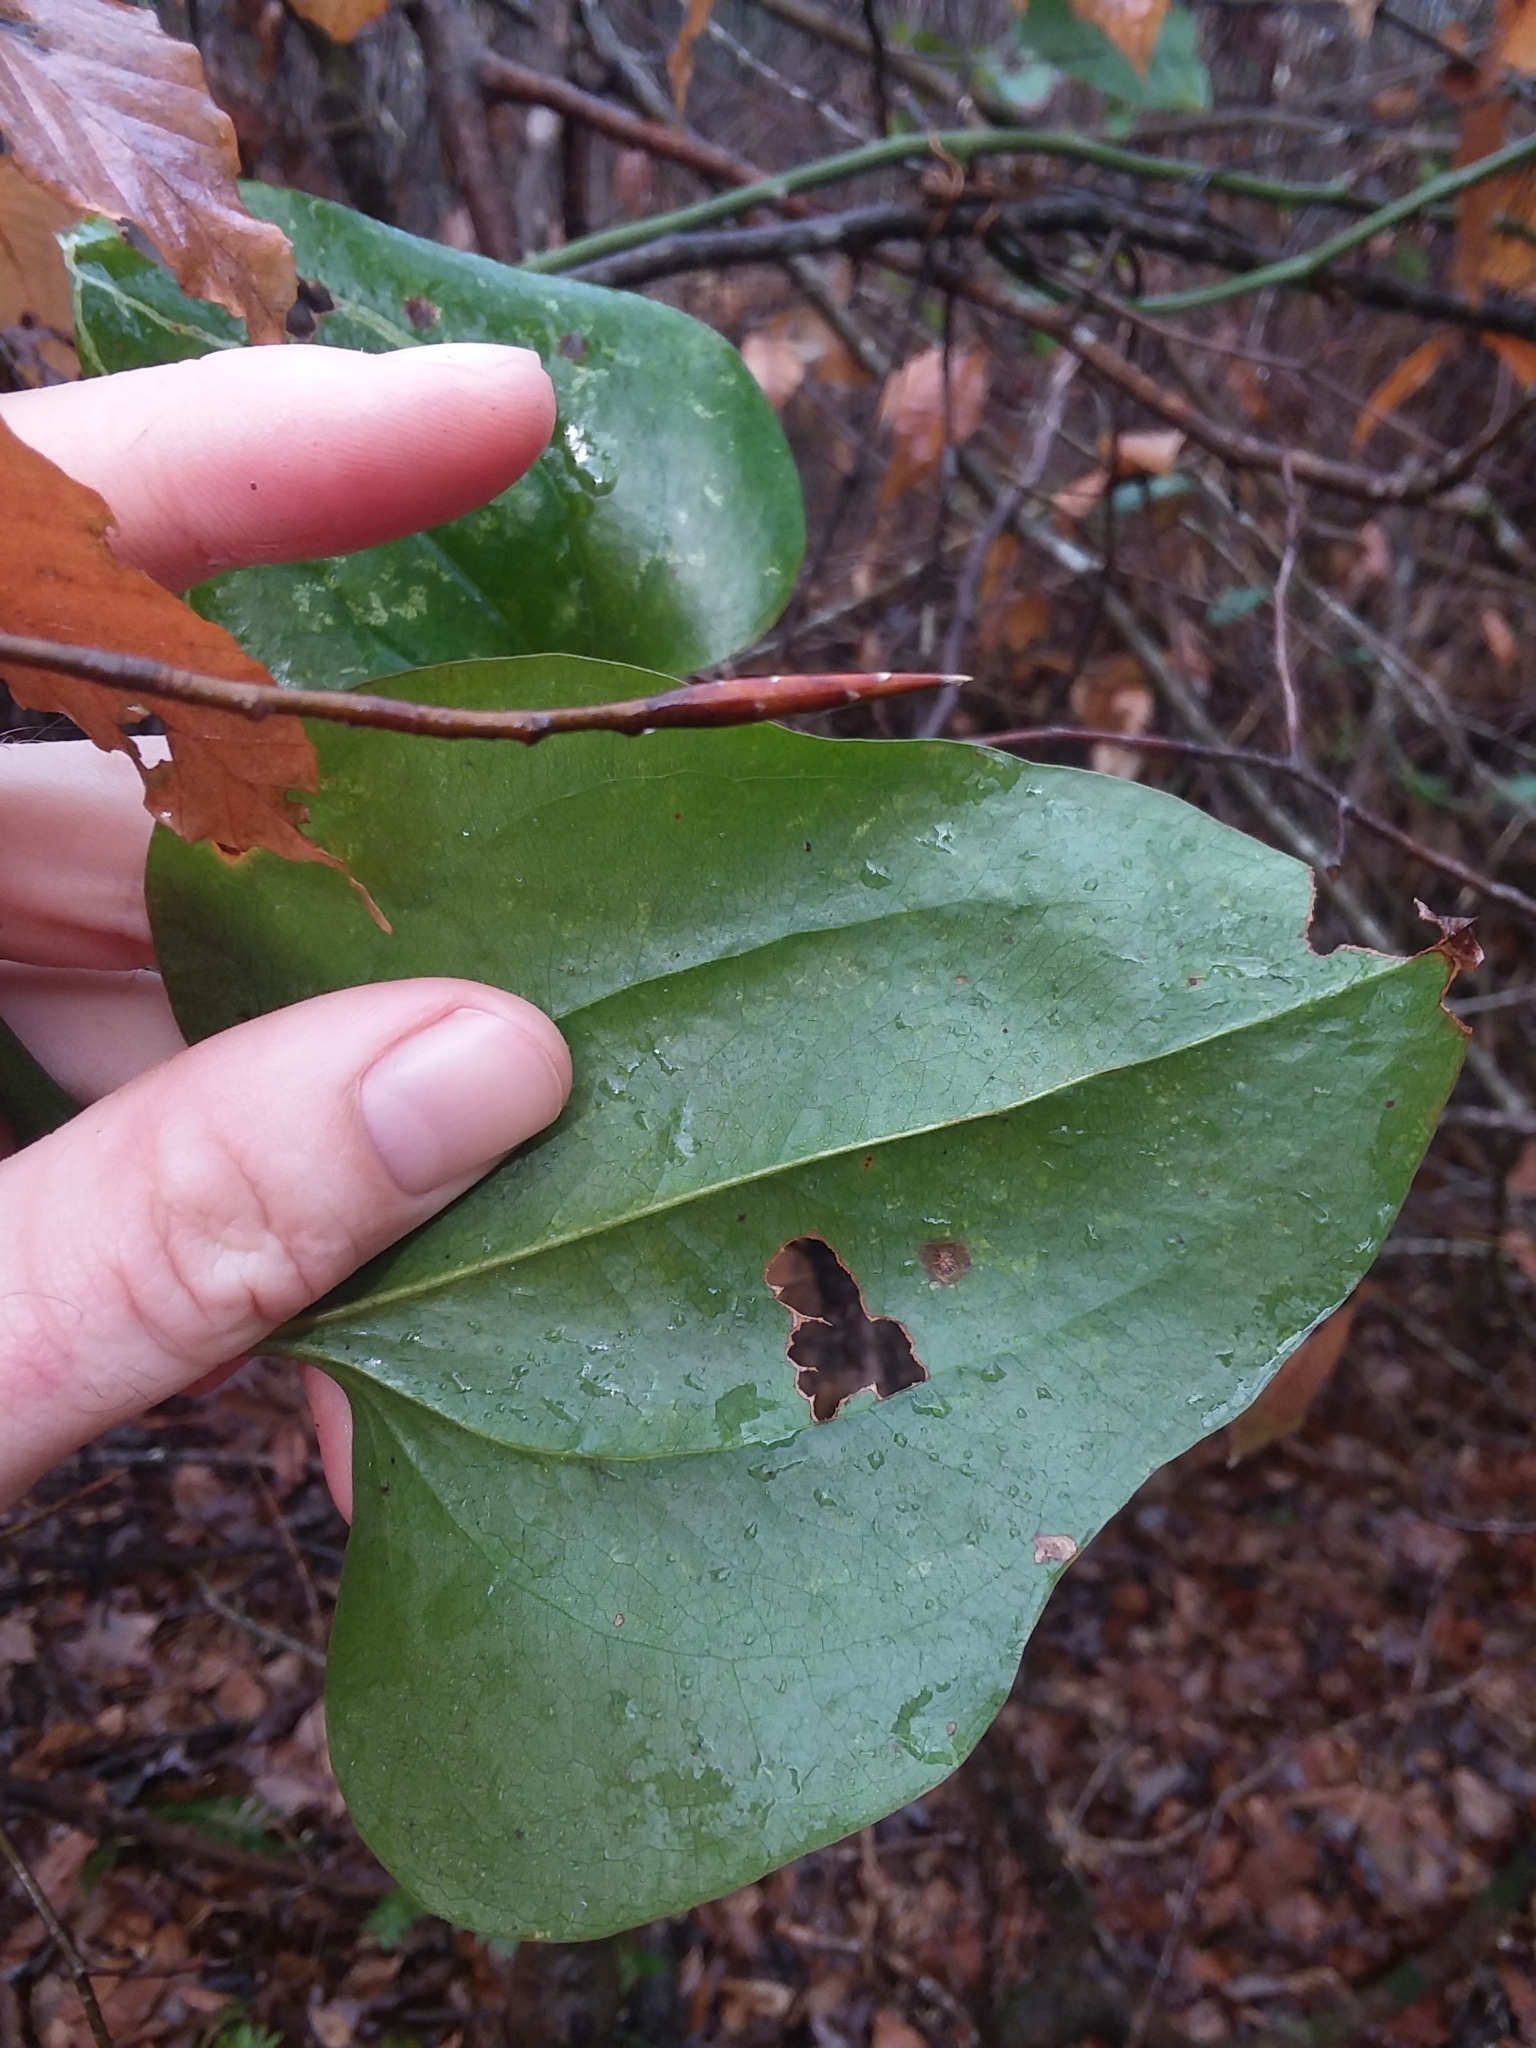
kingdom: Plantae
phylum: Tracheophyta
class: Liliopsida
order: Liliales
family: Smilacaceae
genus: Smilax
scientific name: Smilax rotundifolia
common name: Bullbriar
